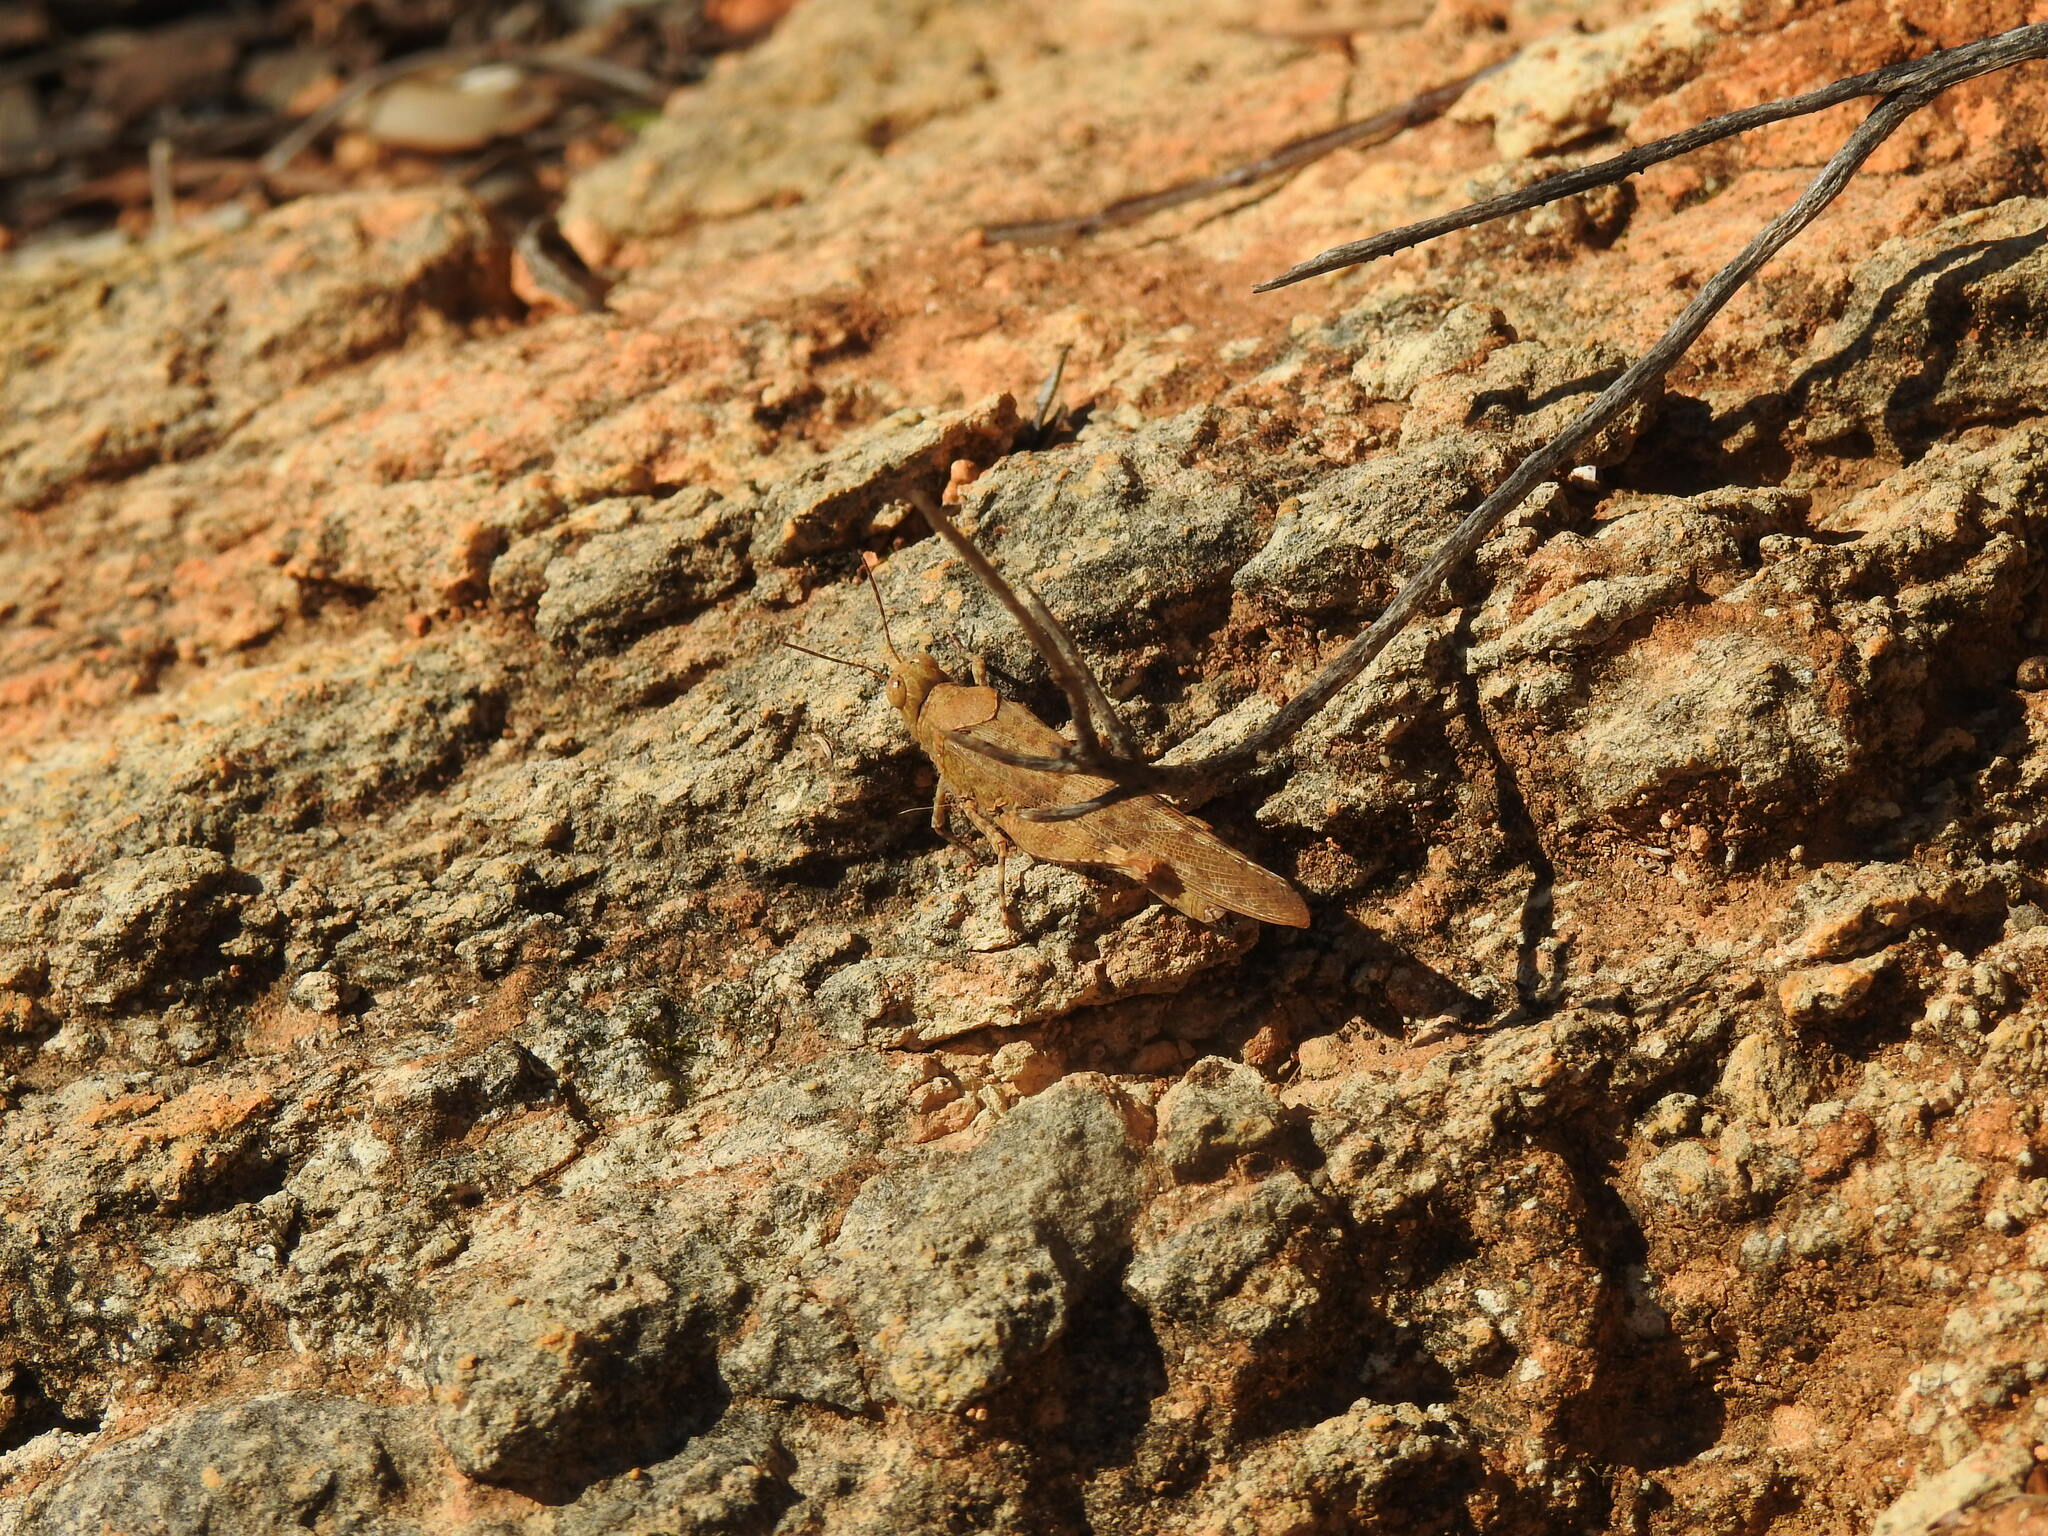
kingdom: Animalia
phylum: Arthropoda
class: Insecta
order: Orthoptera
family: Acrididae
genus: Sphingonotus
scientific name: Sphingonotus rubescens
